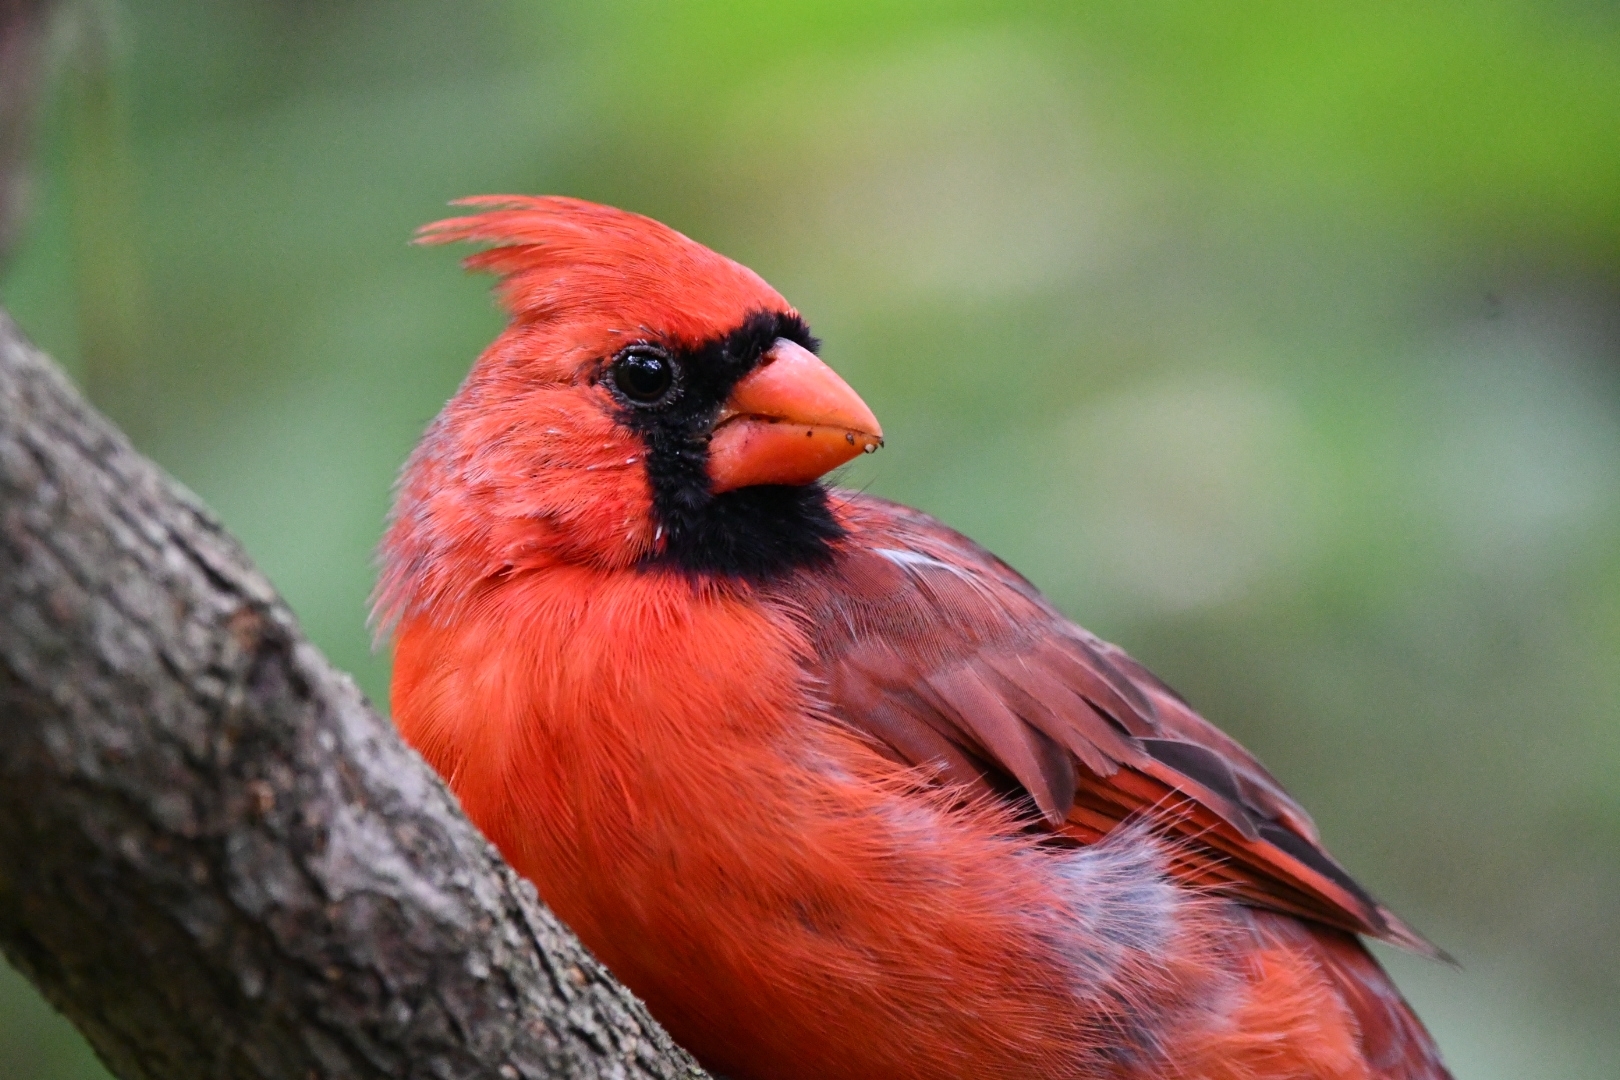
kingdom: Animalia
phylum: Chordata
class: Aves
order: Passeriformes
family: Cardinalidae
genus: Cardinalis
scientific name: Cardinalis cardinalis
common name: Northern cardinal
